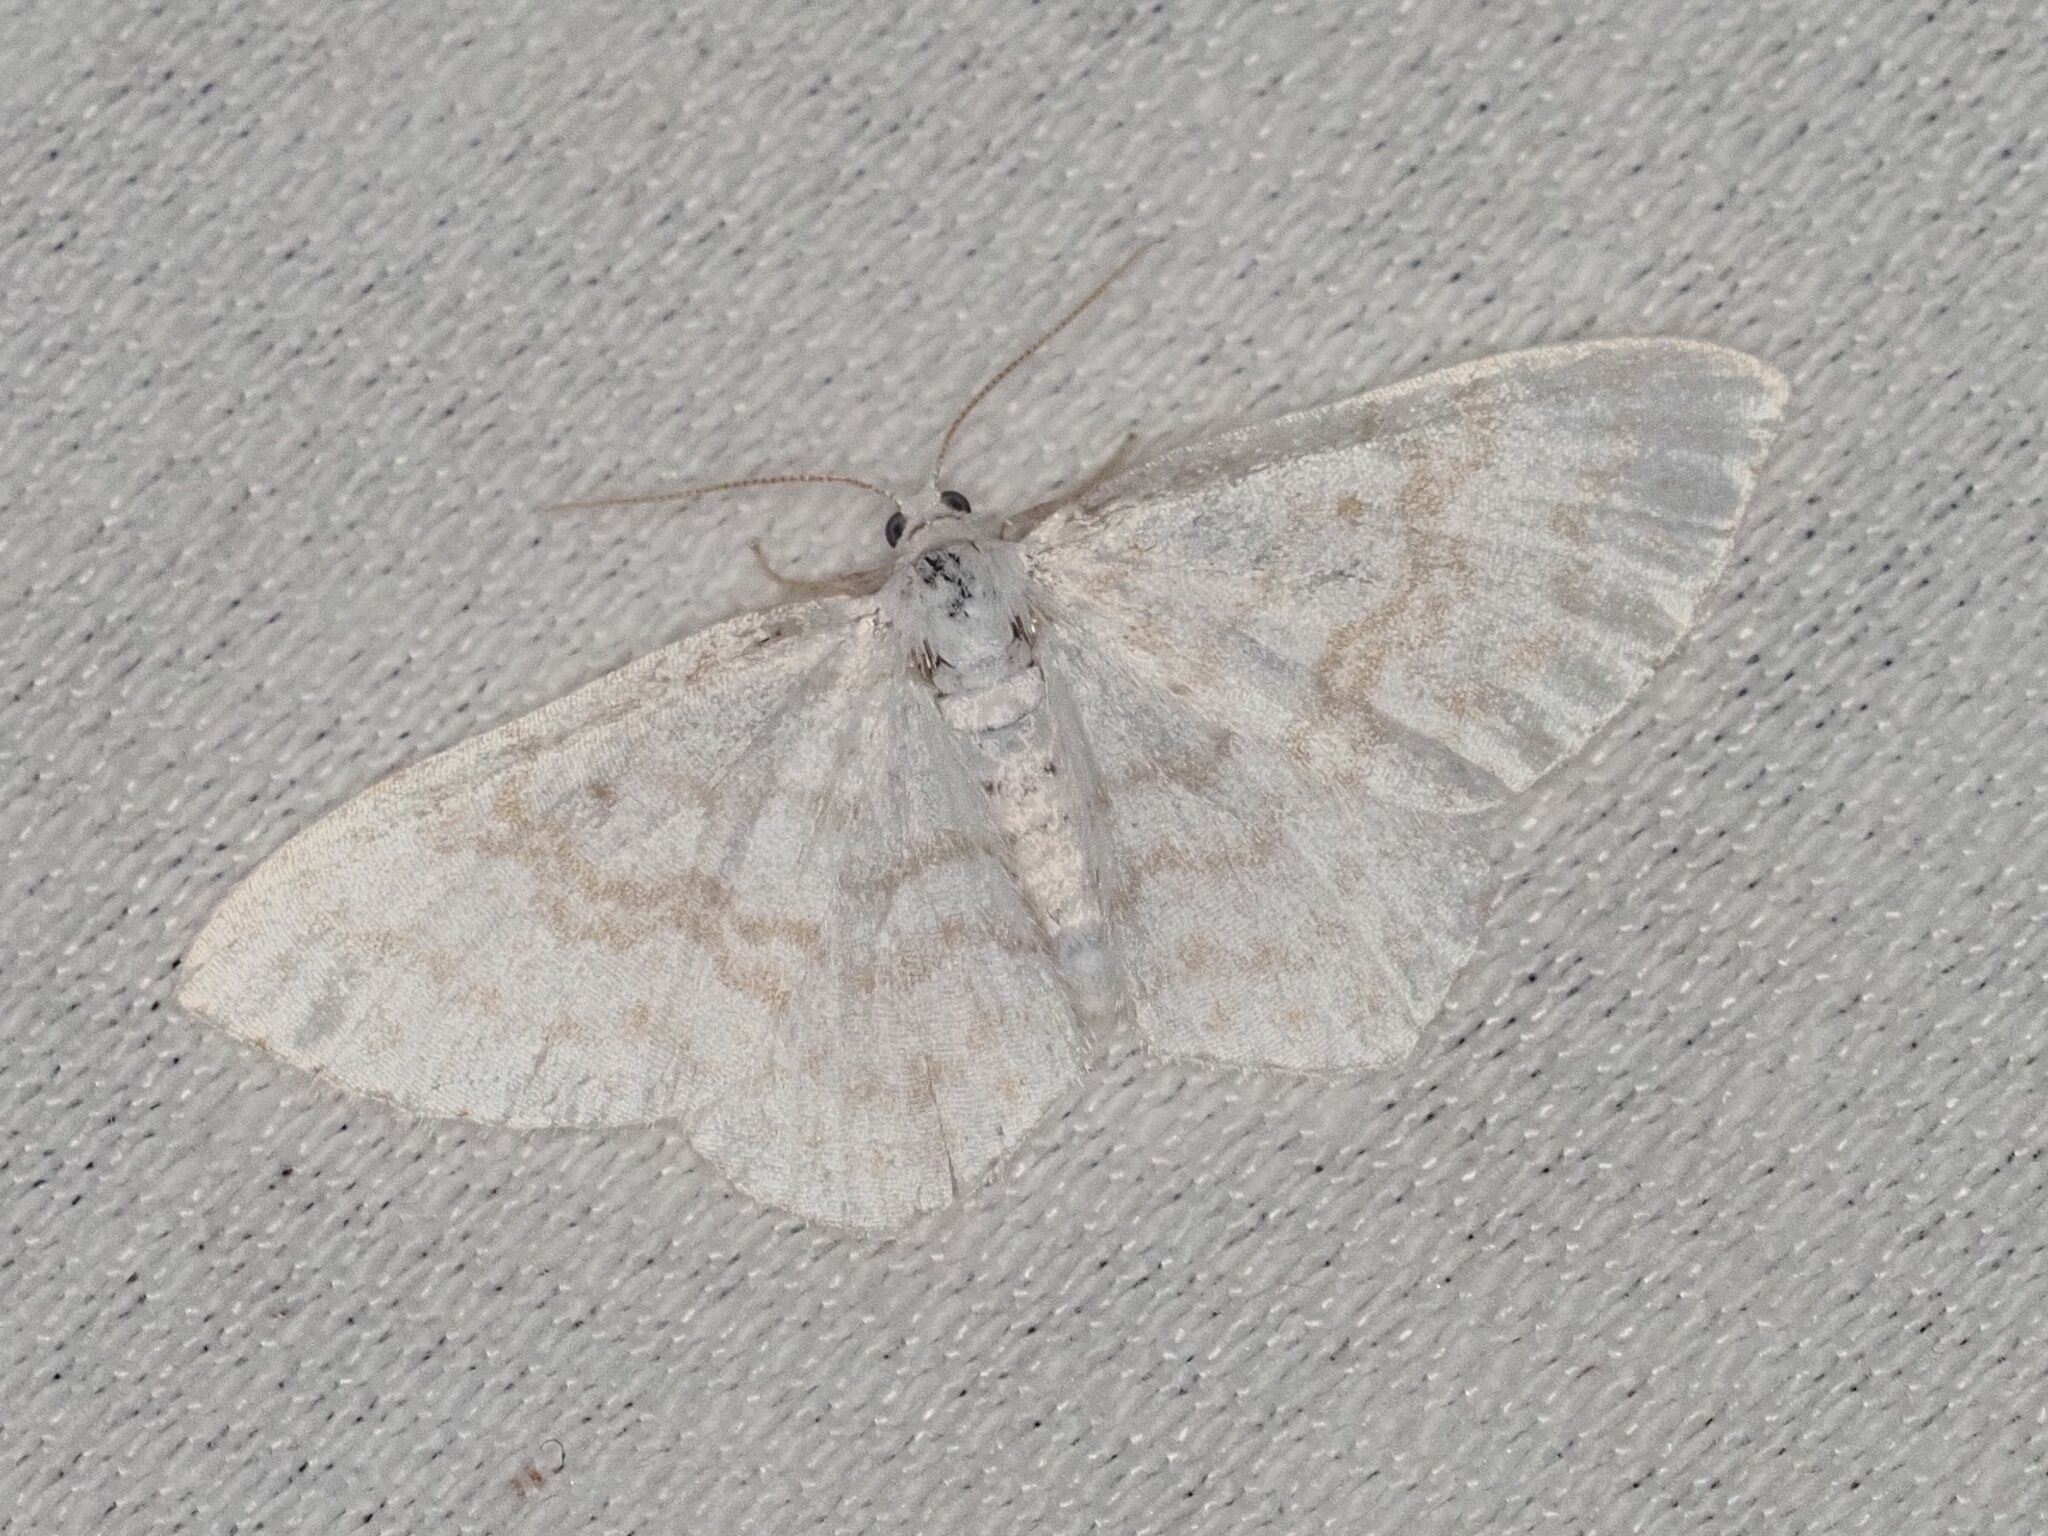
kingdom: Animalia
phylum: Arthropoda
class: Insecta
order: Lepidoptera
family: Geometridae
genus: Asthena
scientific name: Asthena albulata
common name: Small white wave
